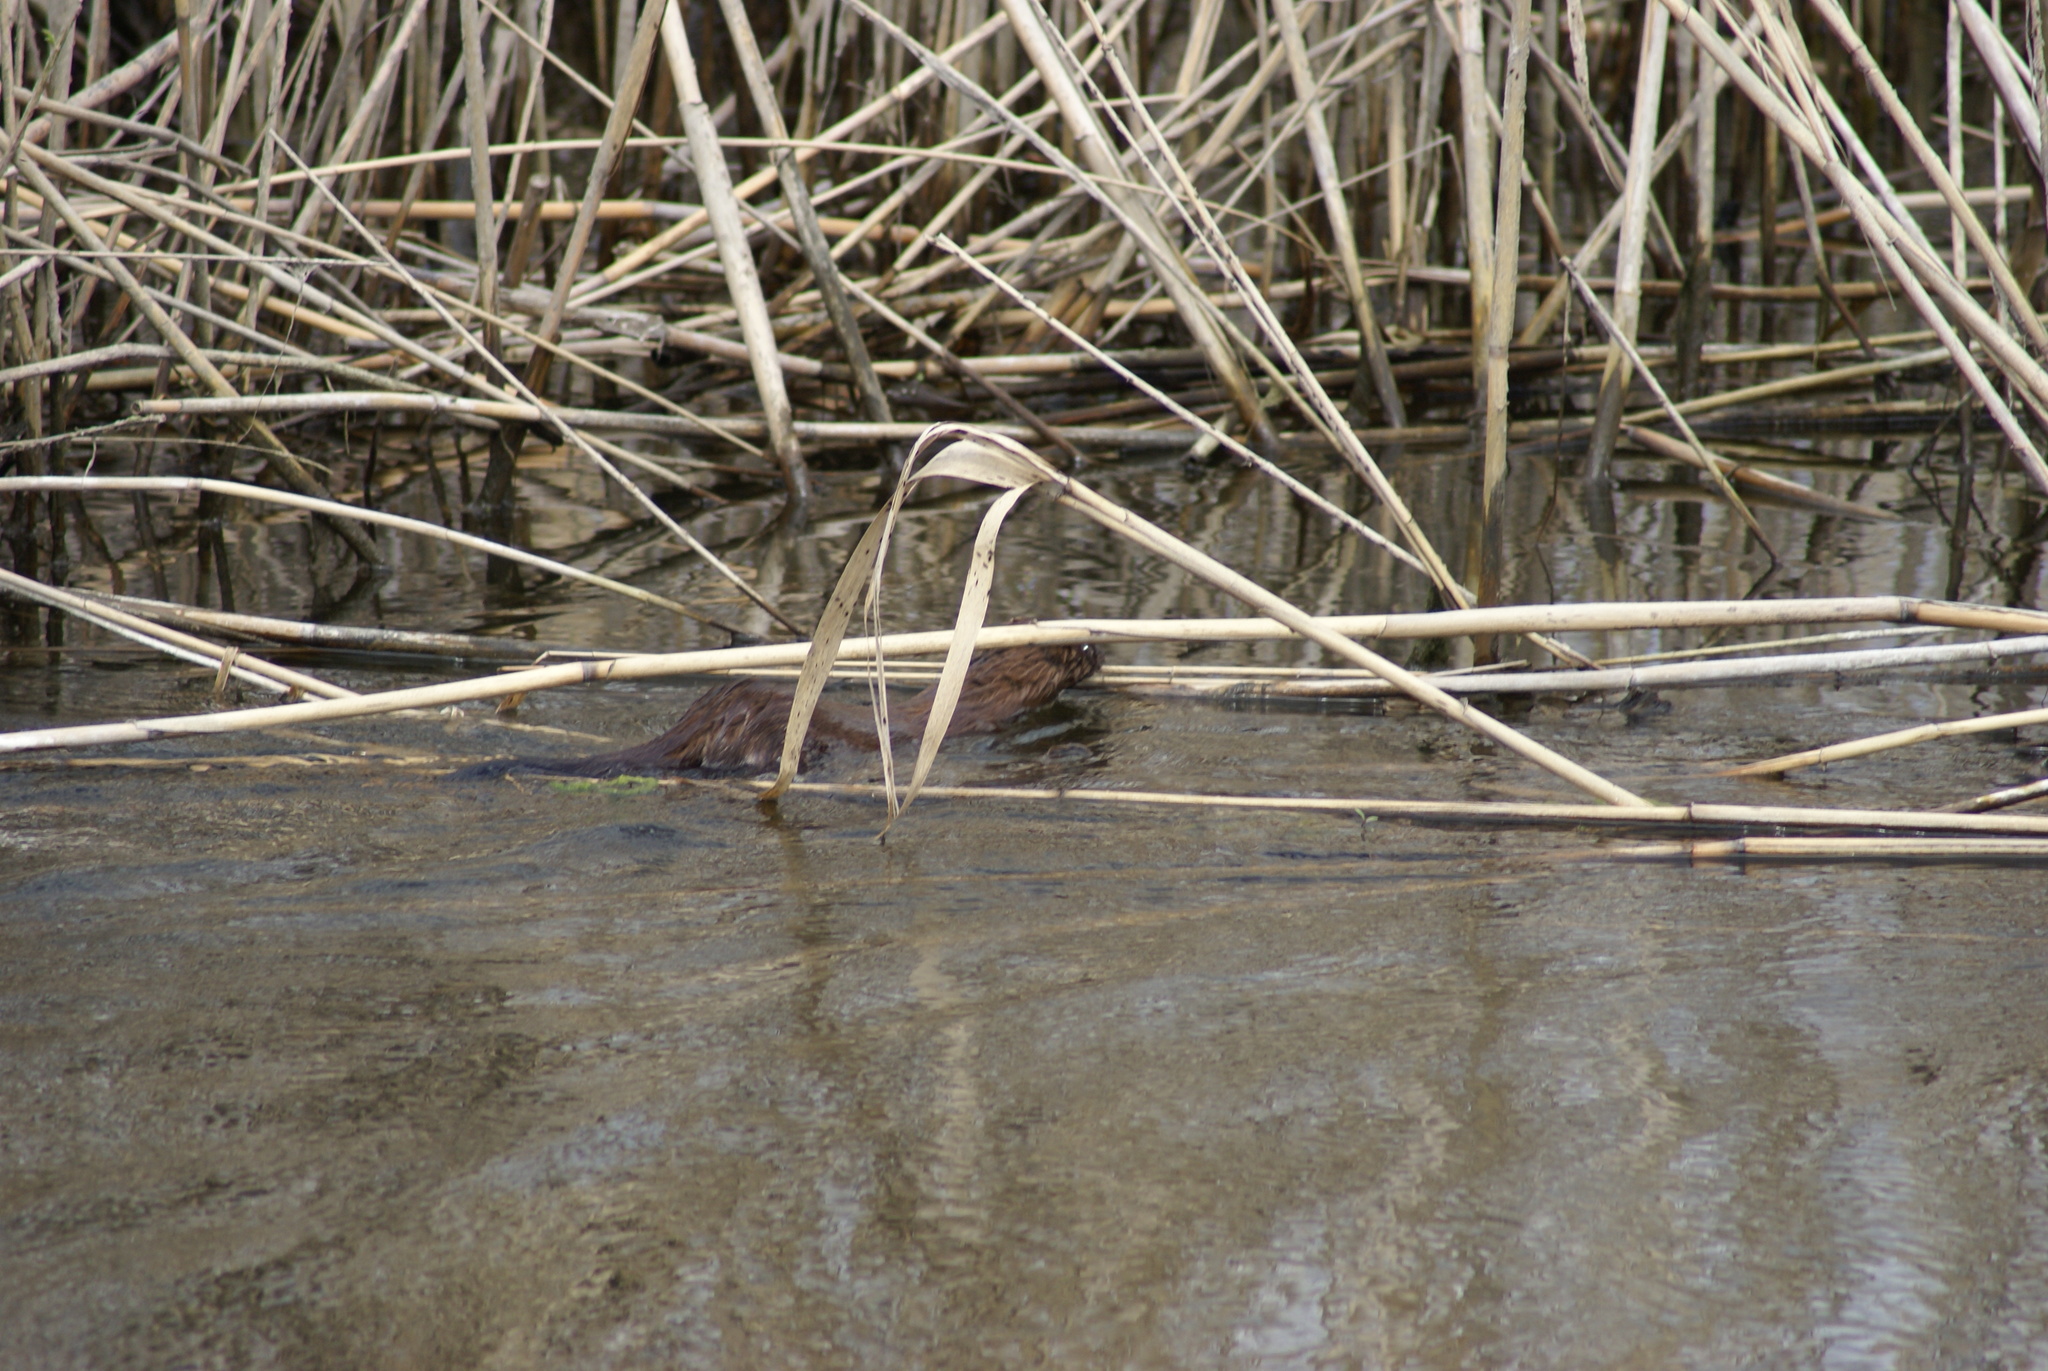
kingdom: Animalia
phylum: Chordata
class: Mammalia
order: Carnivora
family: Mustelidae
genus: Mustela
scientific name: Mustela
